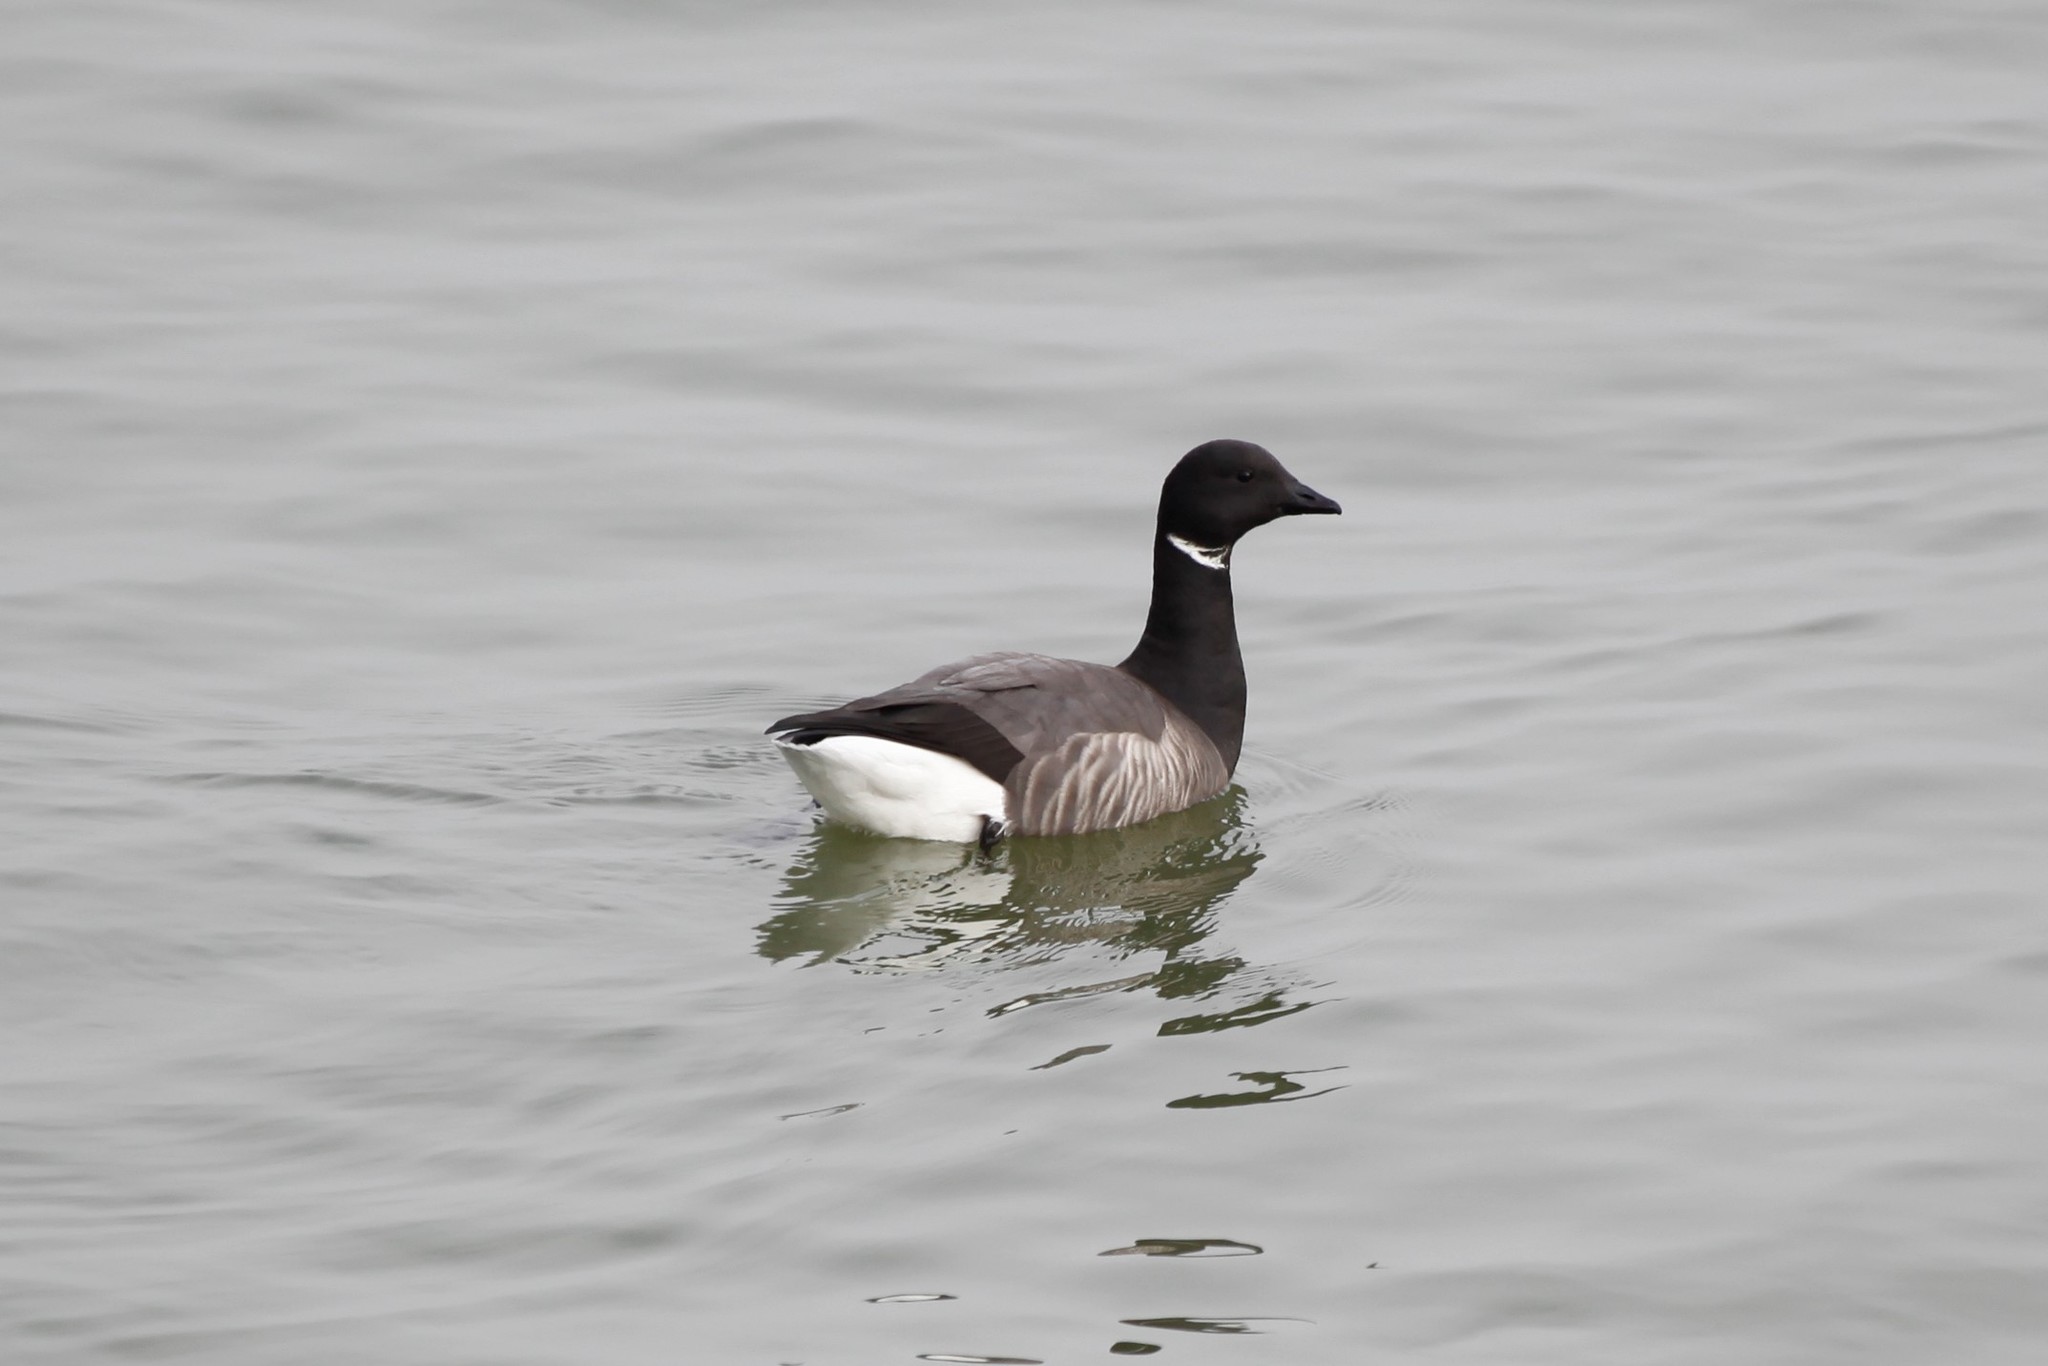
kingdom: Animalia
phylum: Chordata
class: Aves
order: Anseriformes
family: Anatidae
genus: Branta
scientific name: Branta bernicla
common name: Brant goose
